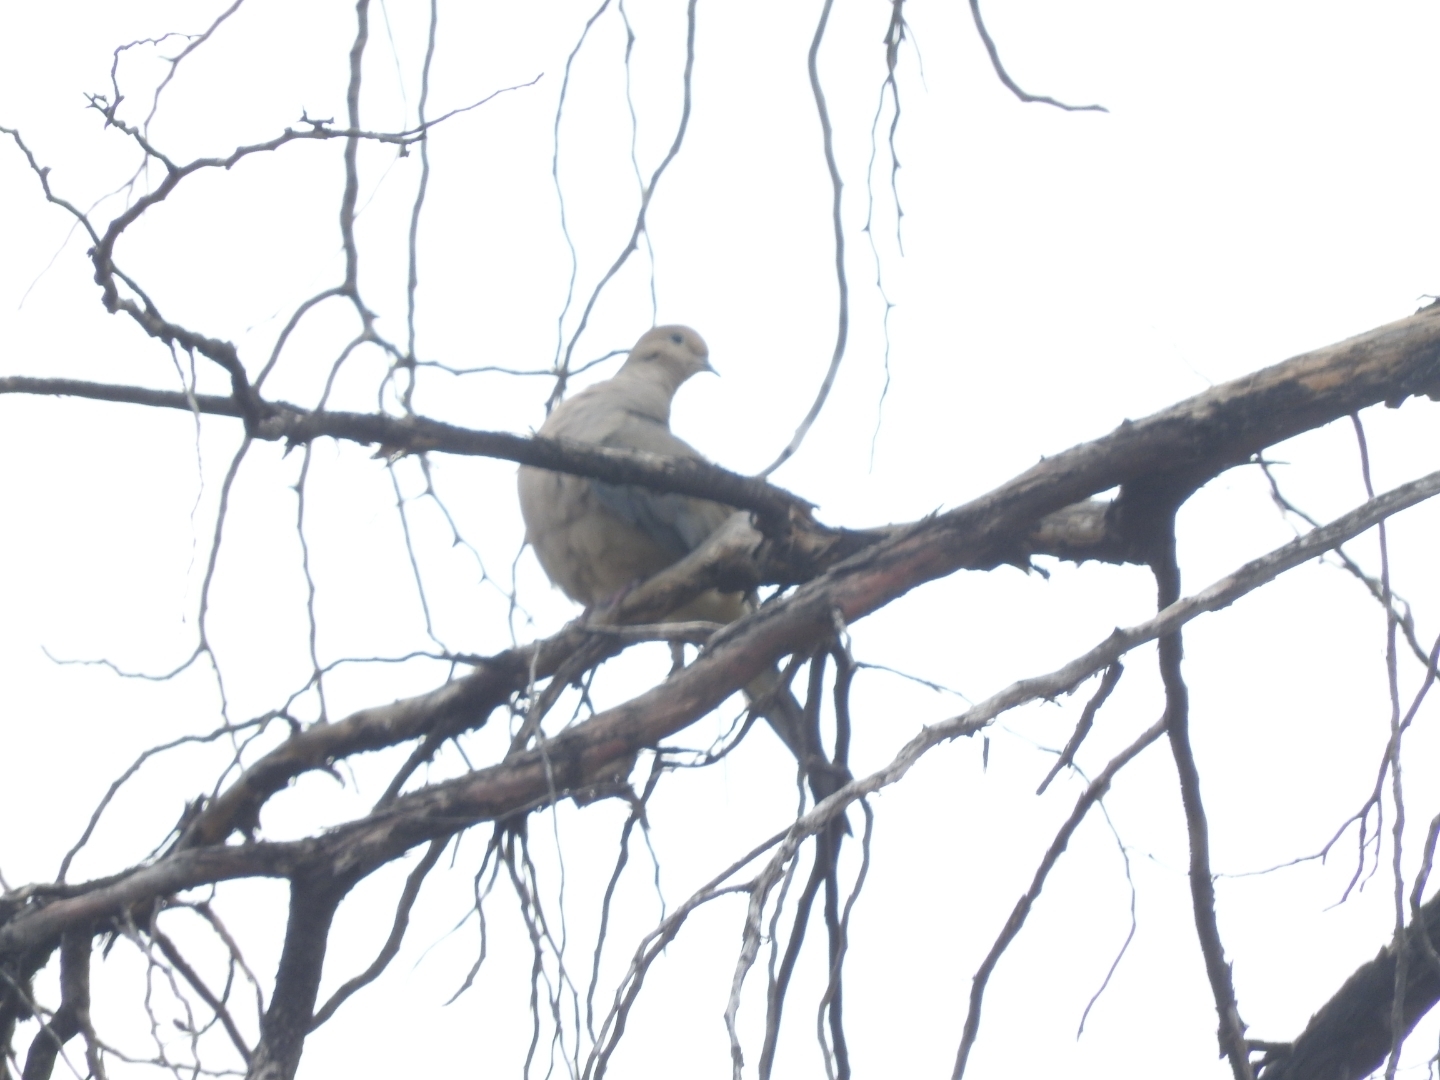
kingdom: Animalia
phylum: Chordata
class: Aves
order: Columbiformes
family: Columbidae
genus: Zenaida
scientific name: Zenaida macroura
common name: Mourning dove
